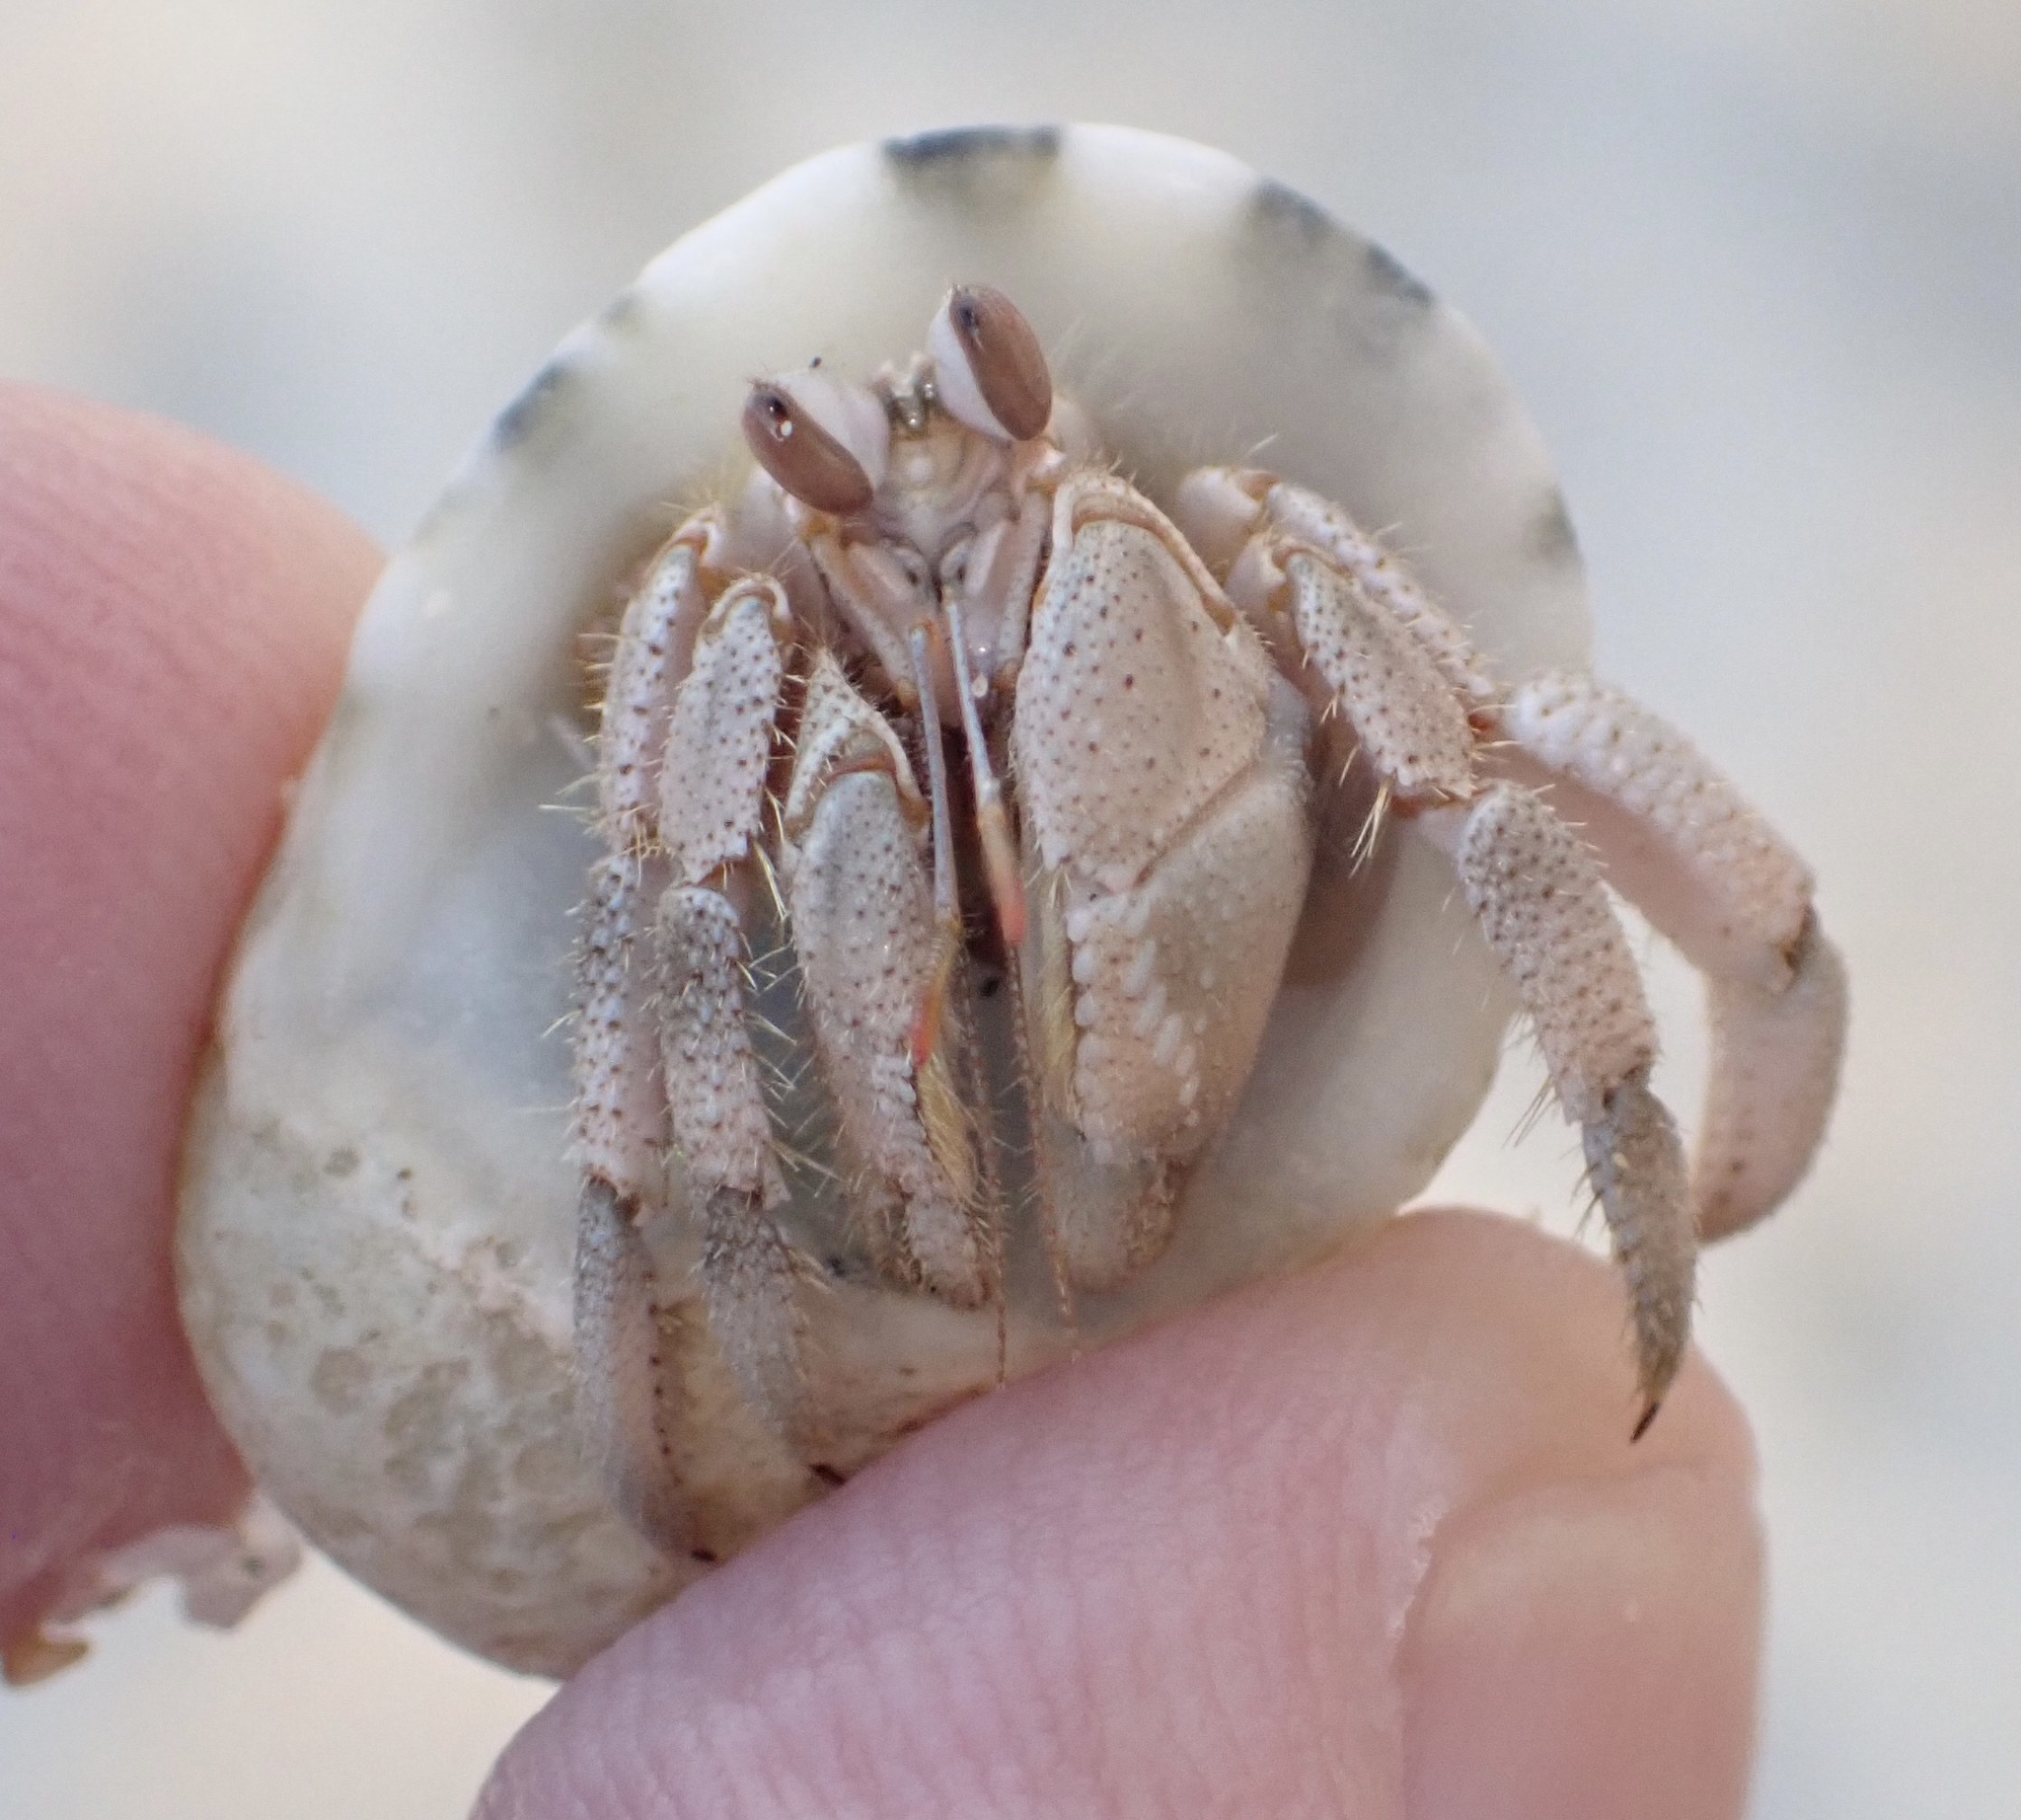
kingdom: Animalia
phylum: Arthropoda
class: Malacostraca
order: Decapoda
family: Coenobitidae
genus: Coenobita
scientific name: Coenobita scaevola
